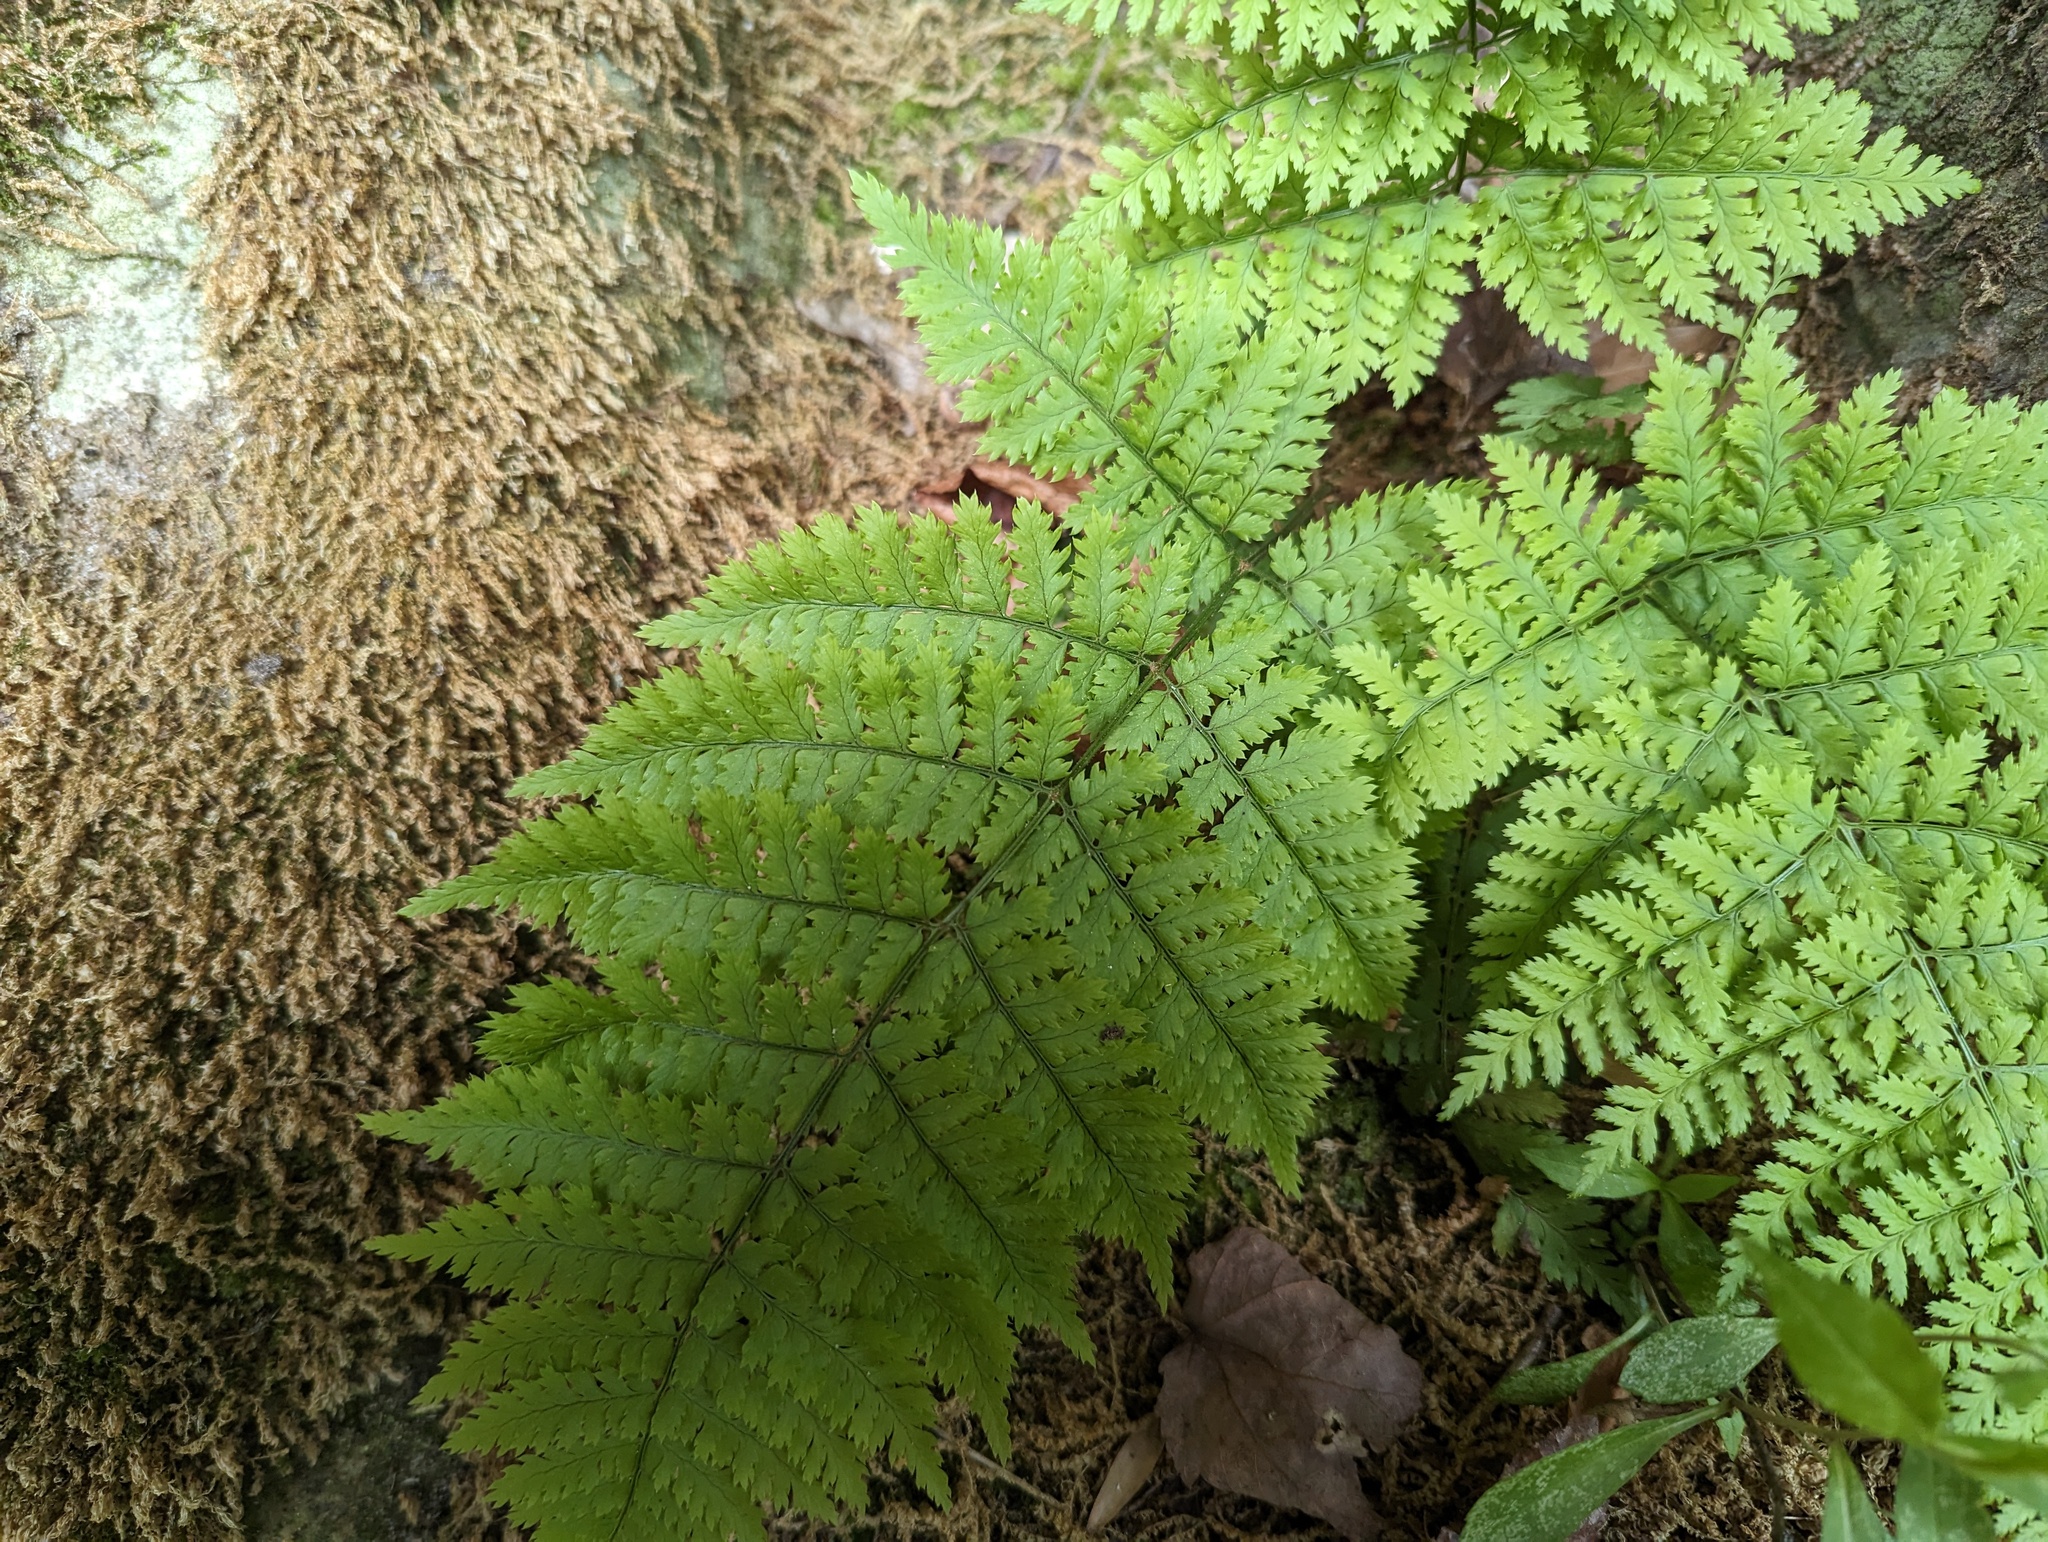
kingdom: Plantae
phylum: Tracheophyta
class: Polypodiopsida
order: Polypodiales
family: Dryopteridaceae
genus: Dryopteris
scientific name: Dryopteris intermedia
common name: Evergreen wood fern
